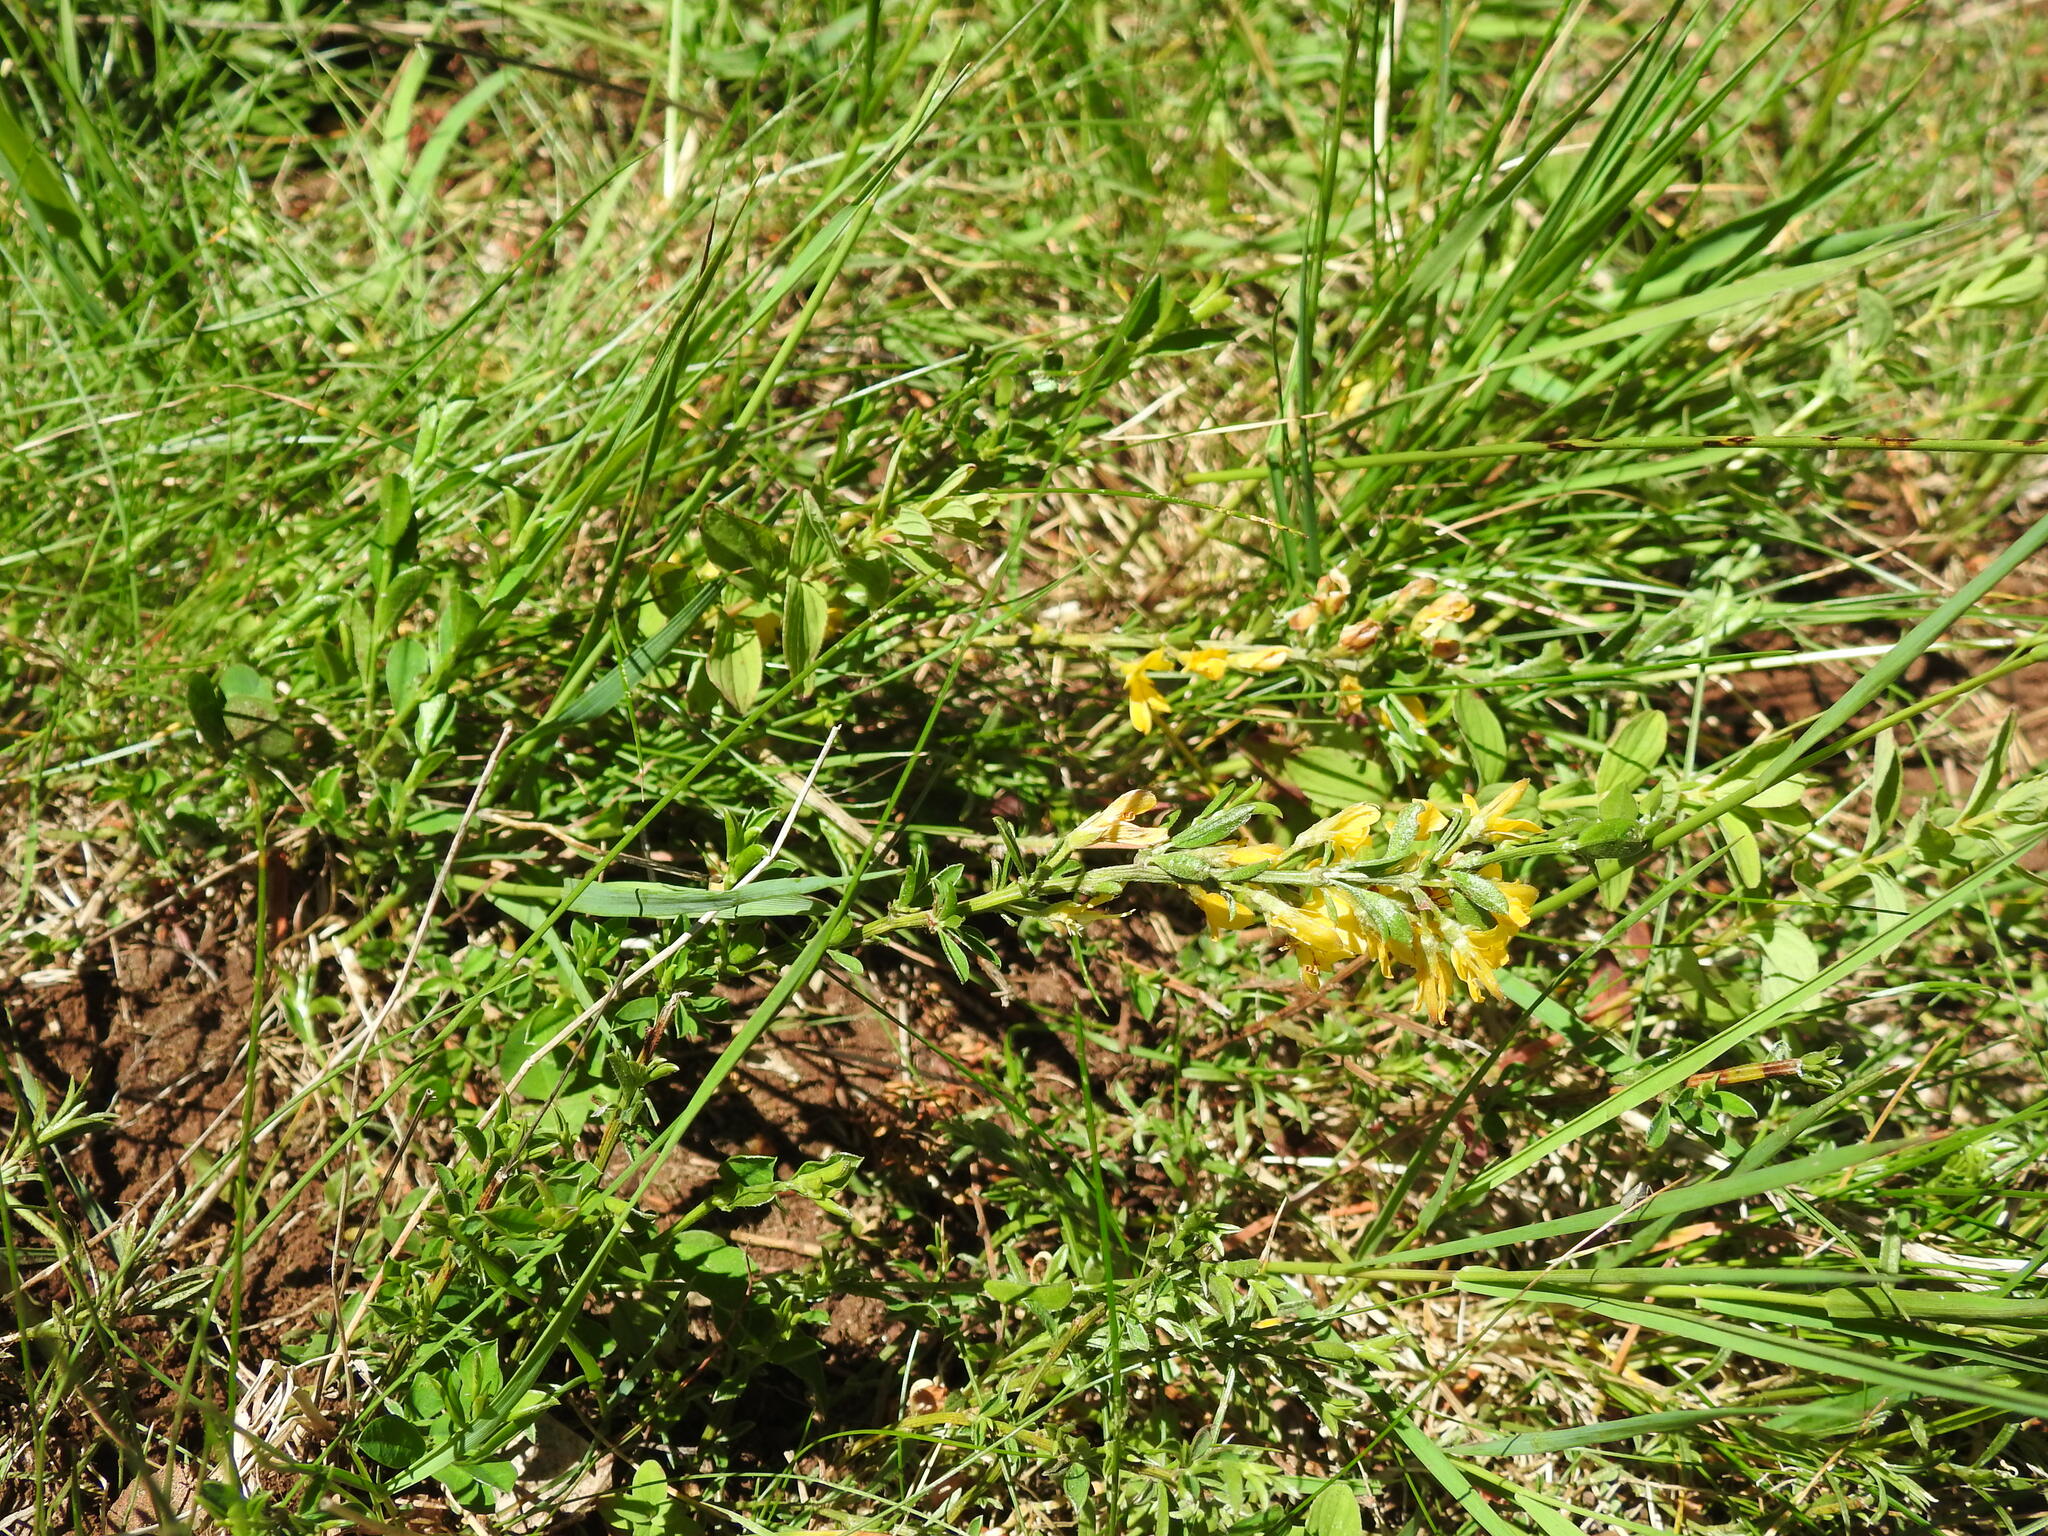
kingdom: Plantae
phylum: Tracheophyta
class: Magnoliopsida
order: Fabales
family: Fabaceae
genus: Genista
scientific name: Genista pilosa
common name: Hairy greenweed
